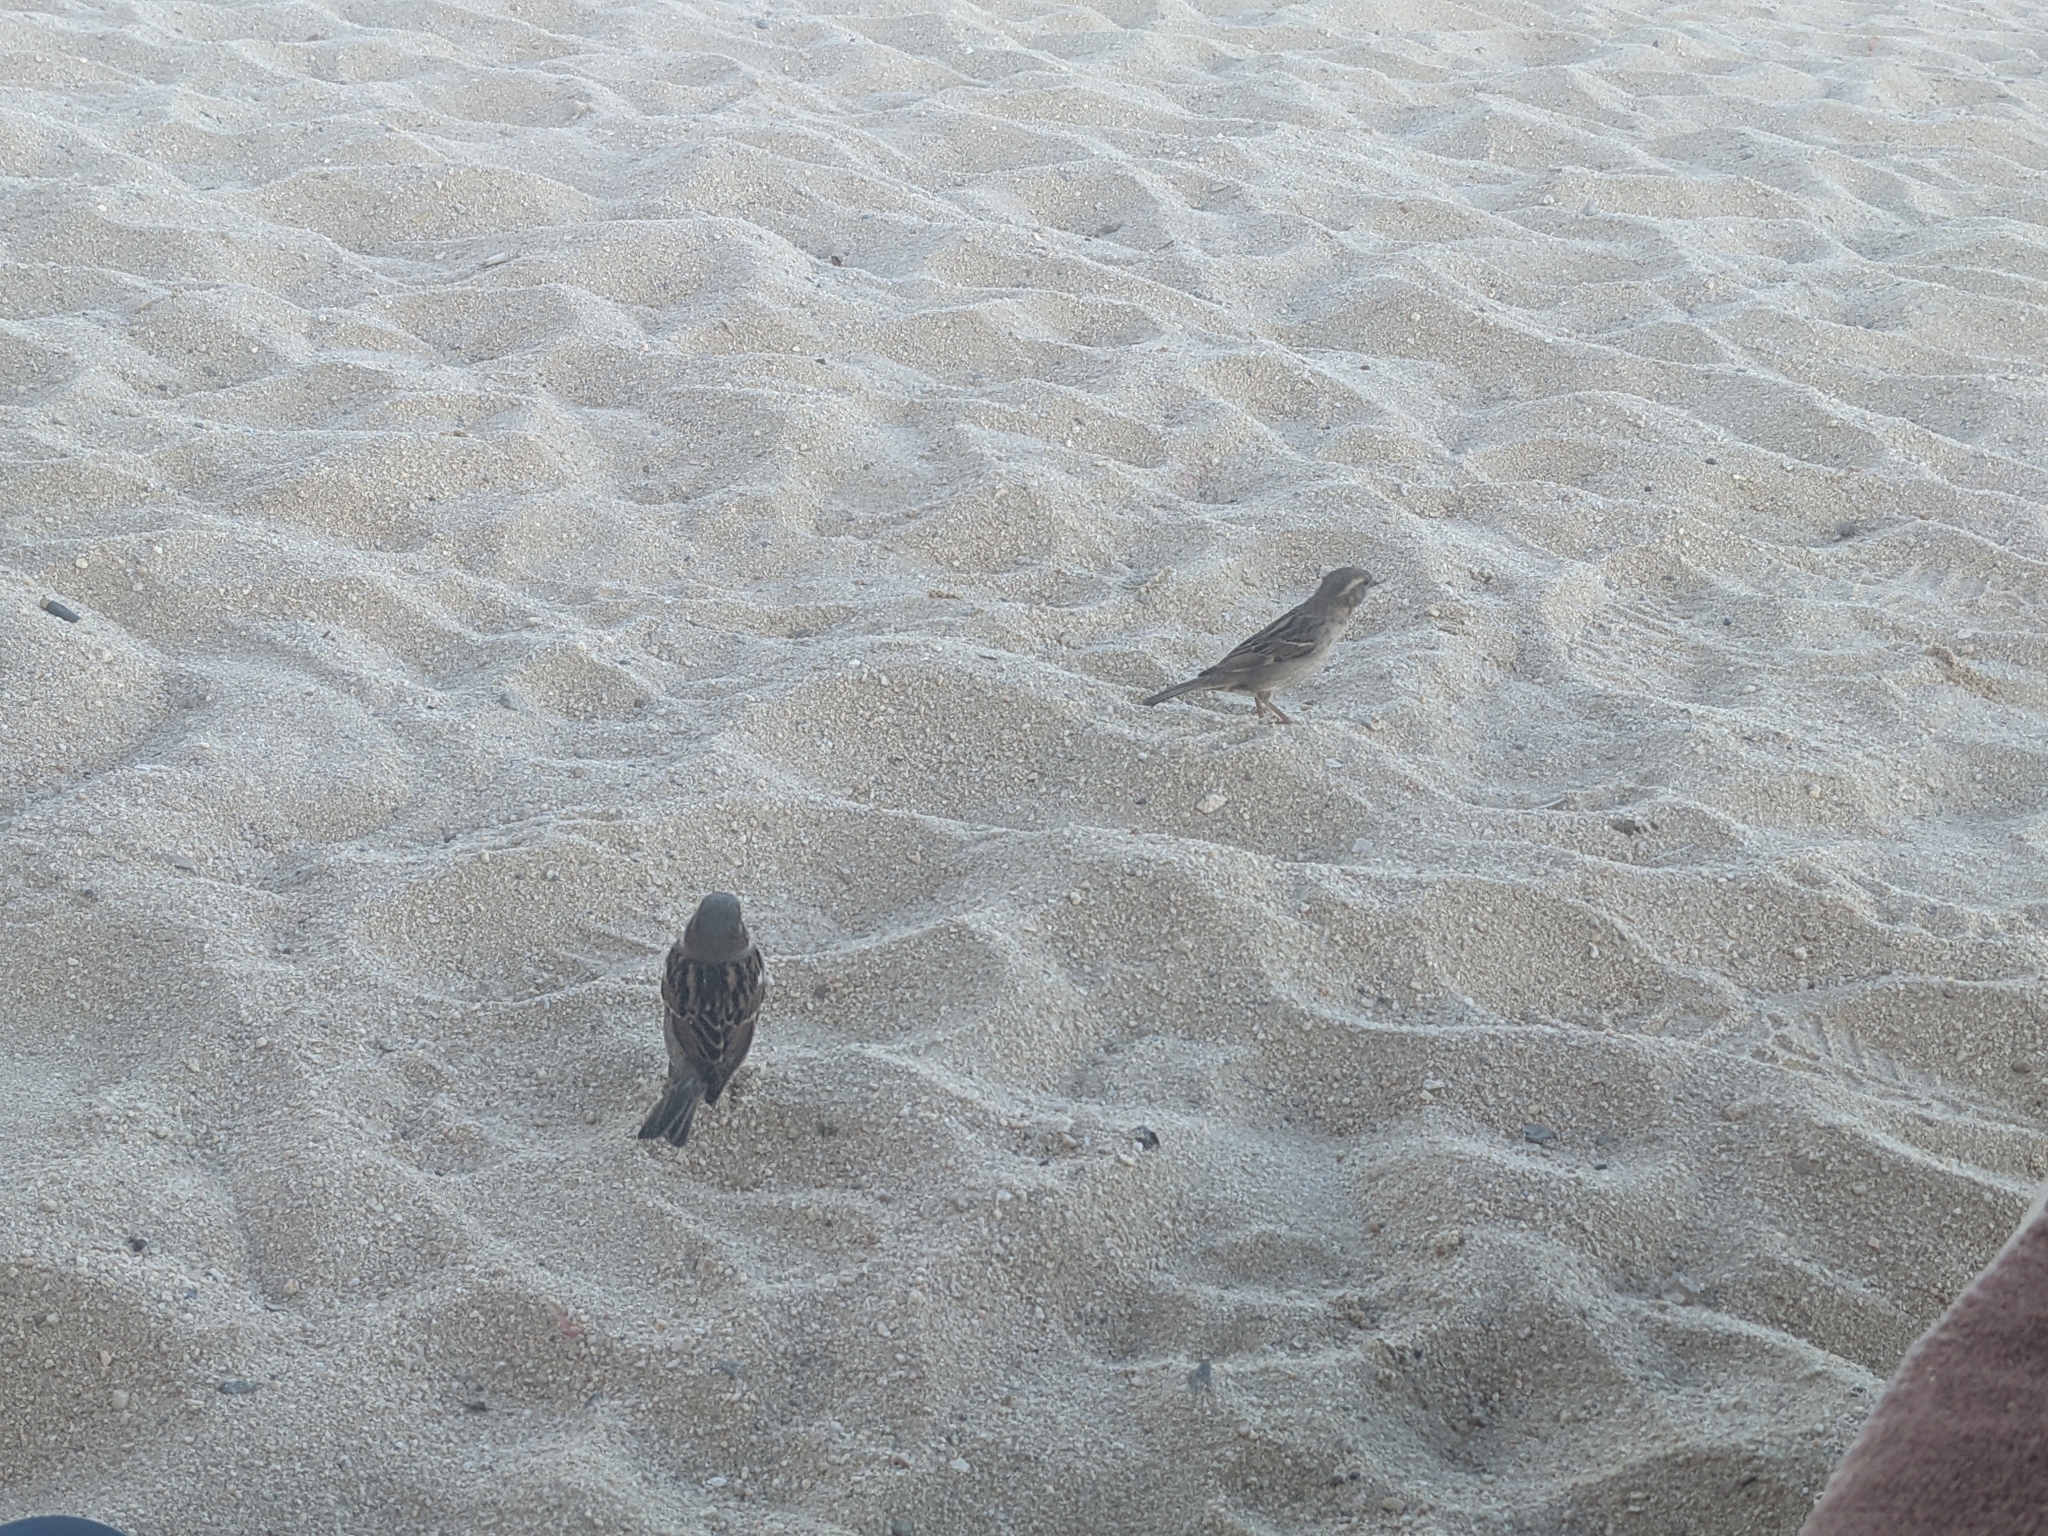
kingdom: Animalia
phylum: Chordata
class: Aves
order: Passeriformes
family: Passeridae
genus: Passer
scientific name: Passer domesticus
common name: House sparrow
